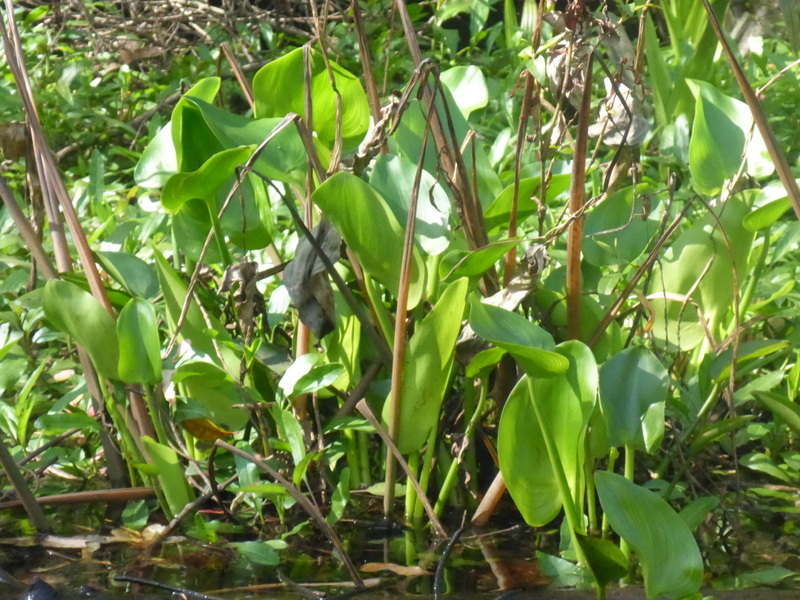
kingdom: Plantae
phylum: Tracheophyta
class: Liliopsida
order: Commelinales
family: Pontederiaceae
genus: Pontederia
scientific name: Pontederia cordata
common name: Pickerelweed
